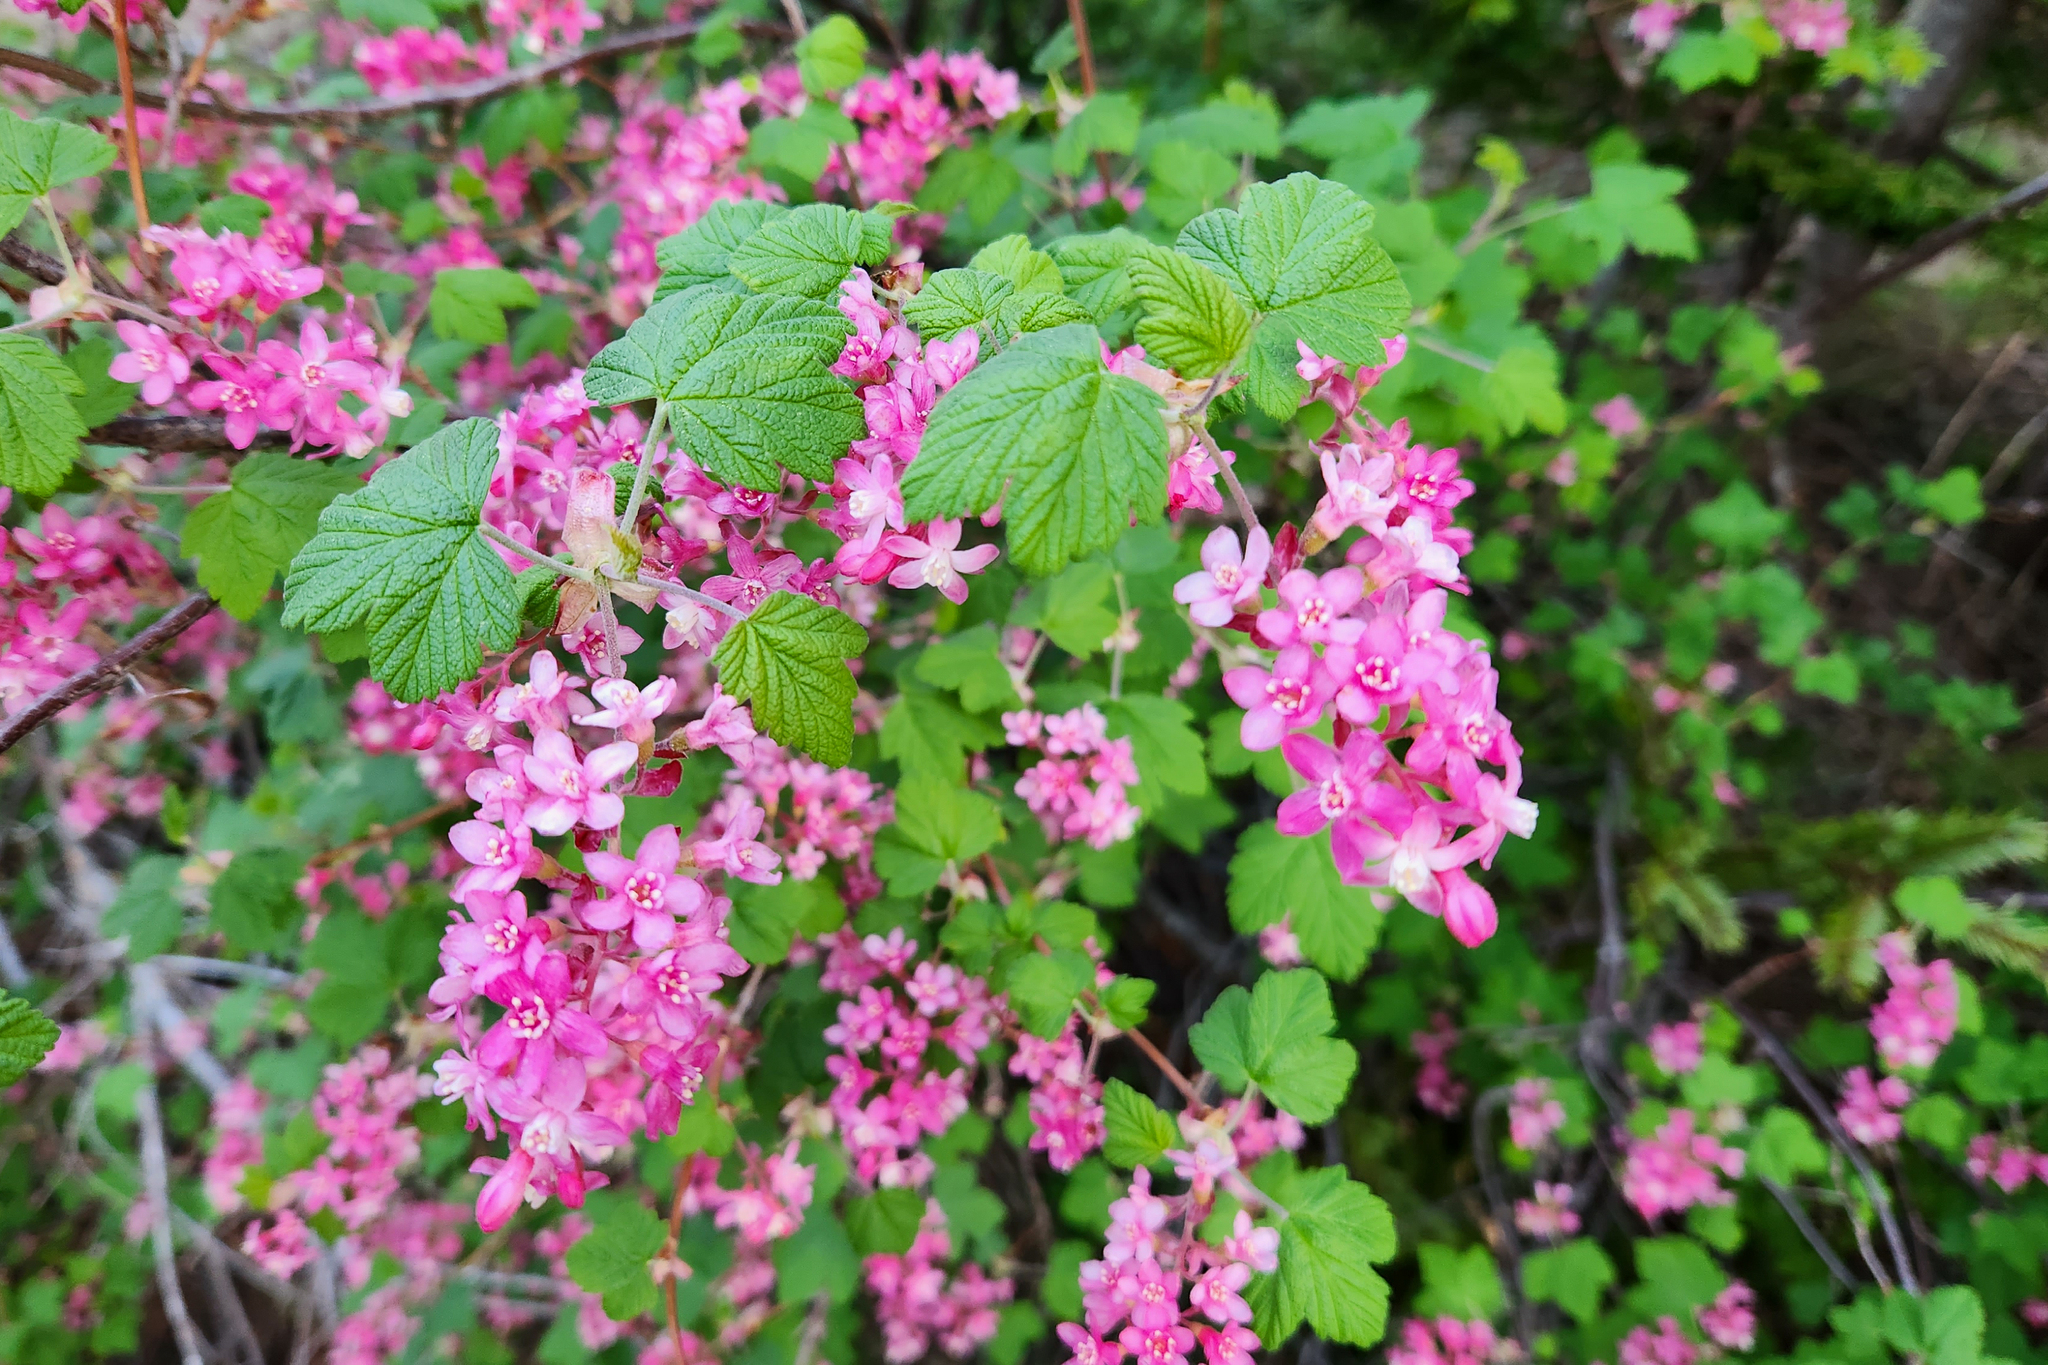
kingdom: Plantae
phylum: Tracheophyta
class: Magnoliopsida
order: Saxifragales
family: Grossulariaceae
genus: Ribes
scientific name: Ribes sanguineum
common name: Flowering currant
